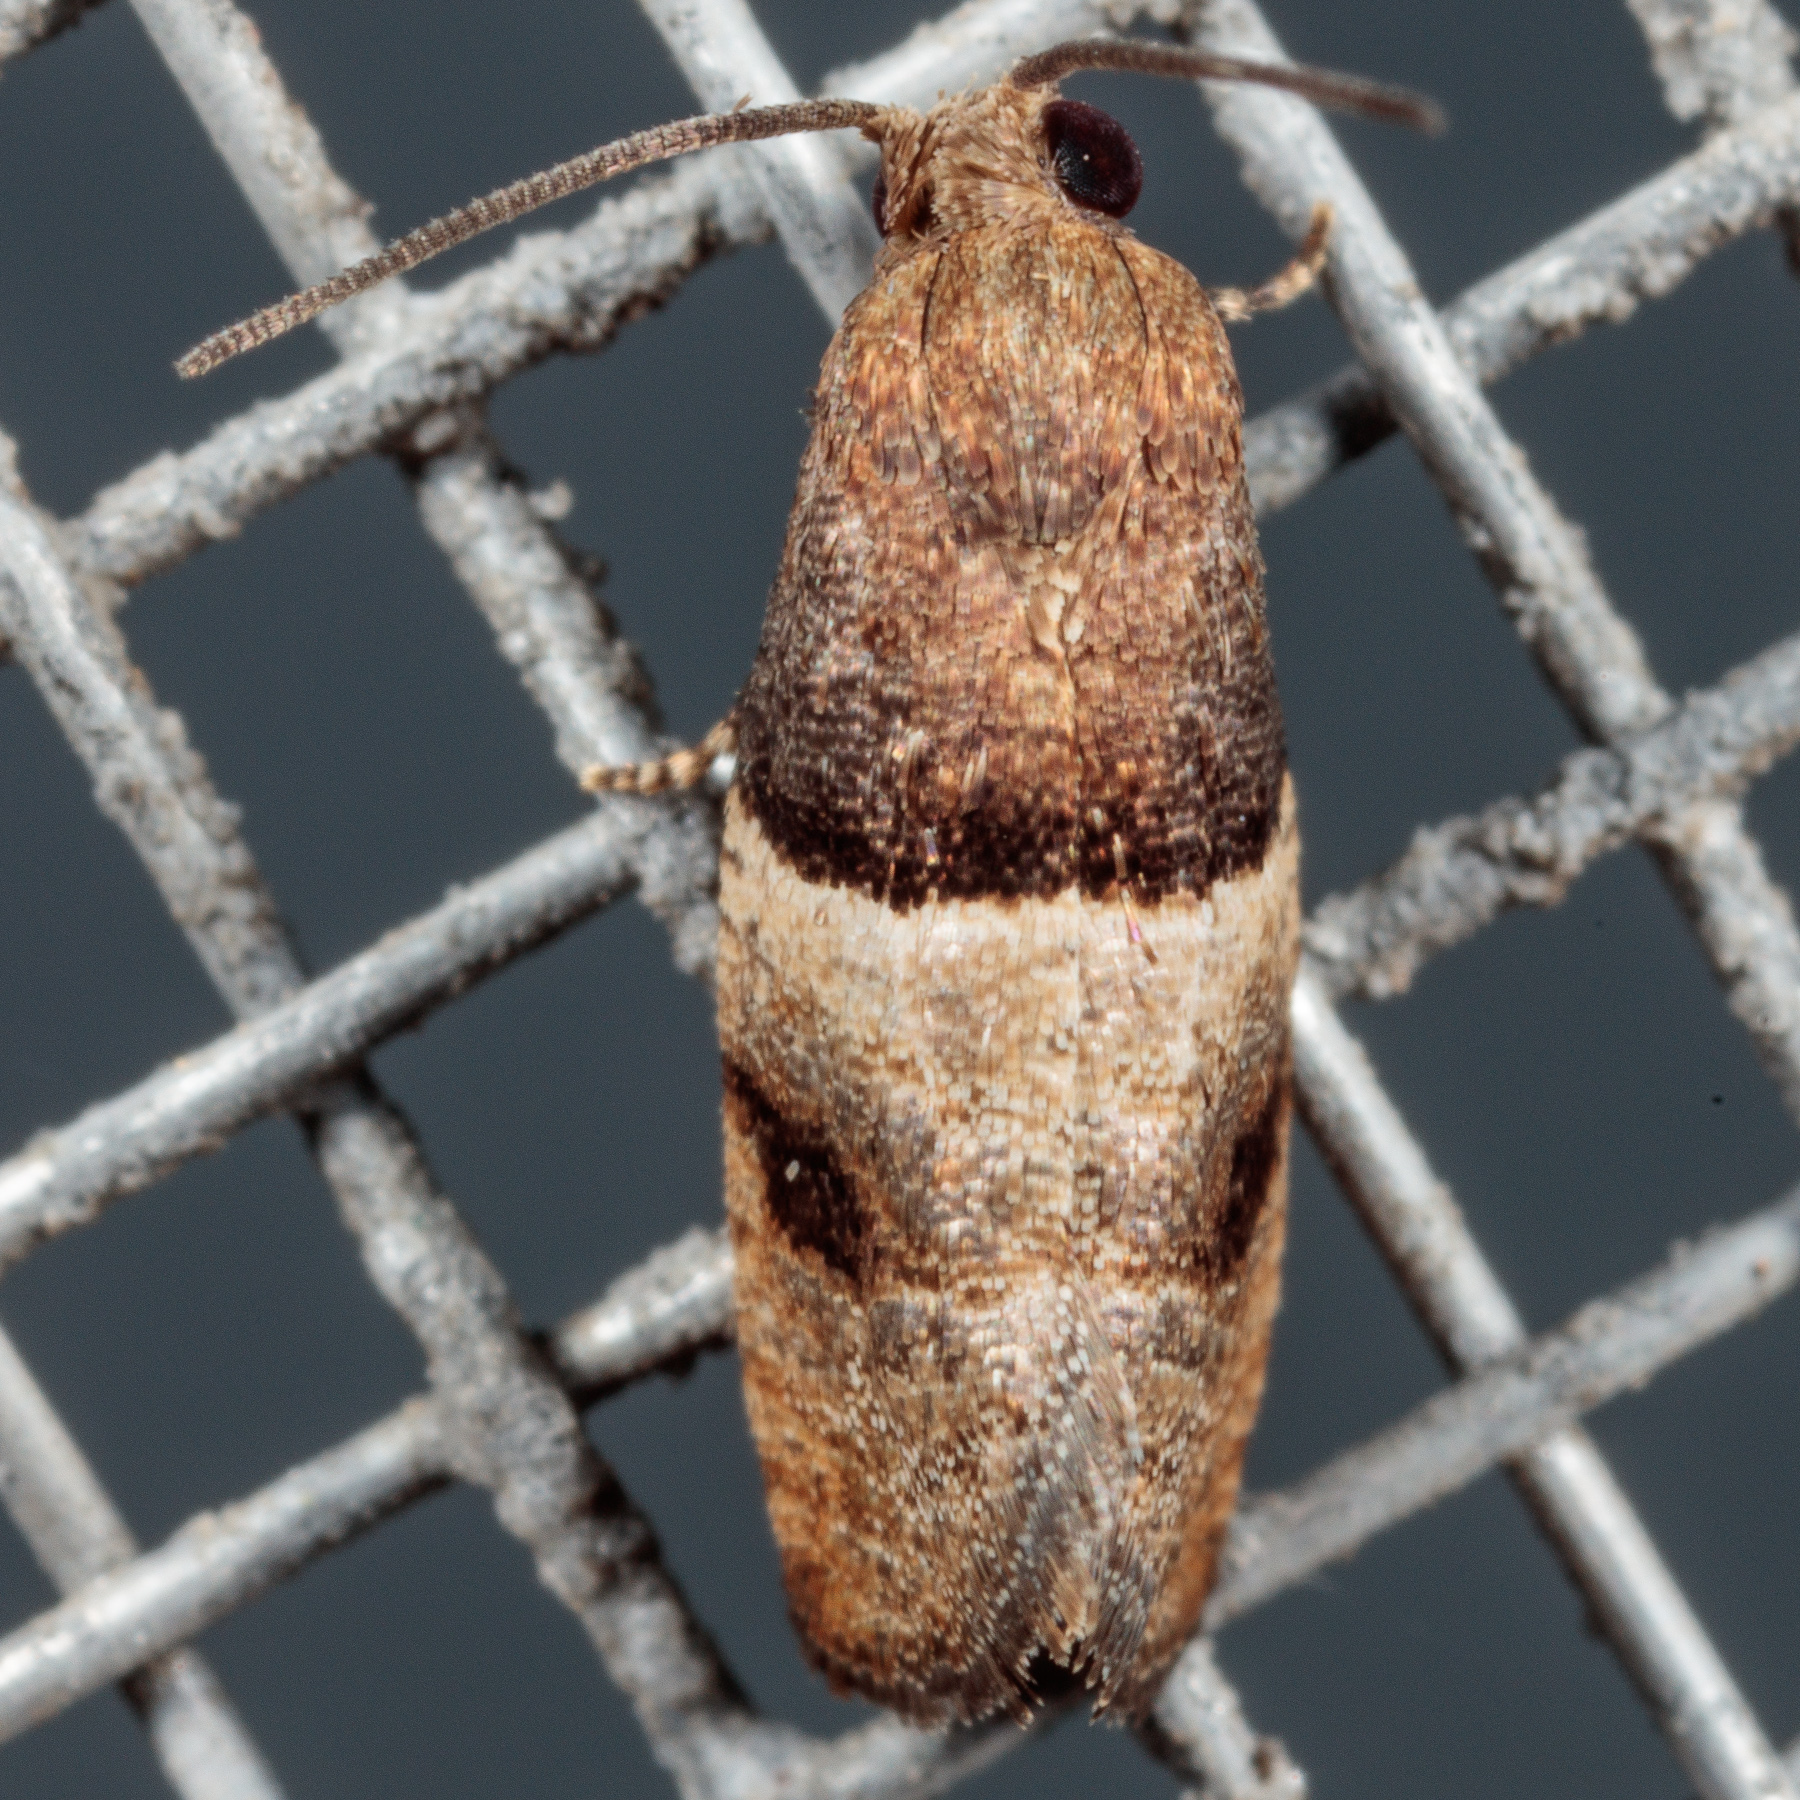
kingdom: Animalia
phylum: Arthropoda
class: Insecta
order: Lepidoptera
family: Tortricidae
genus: Larisa
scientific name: Larisa subsolana
